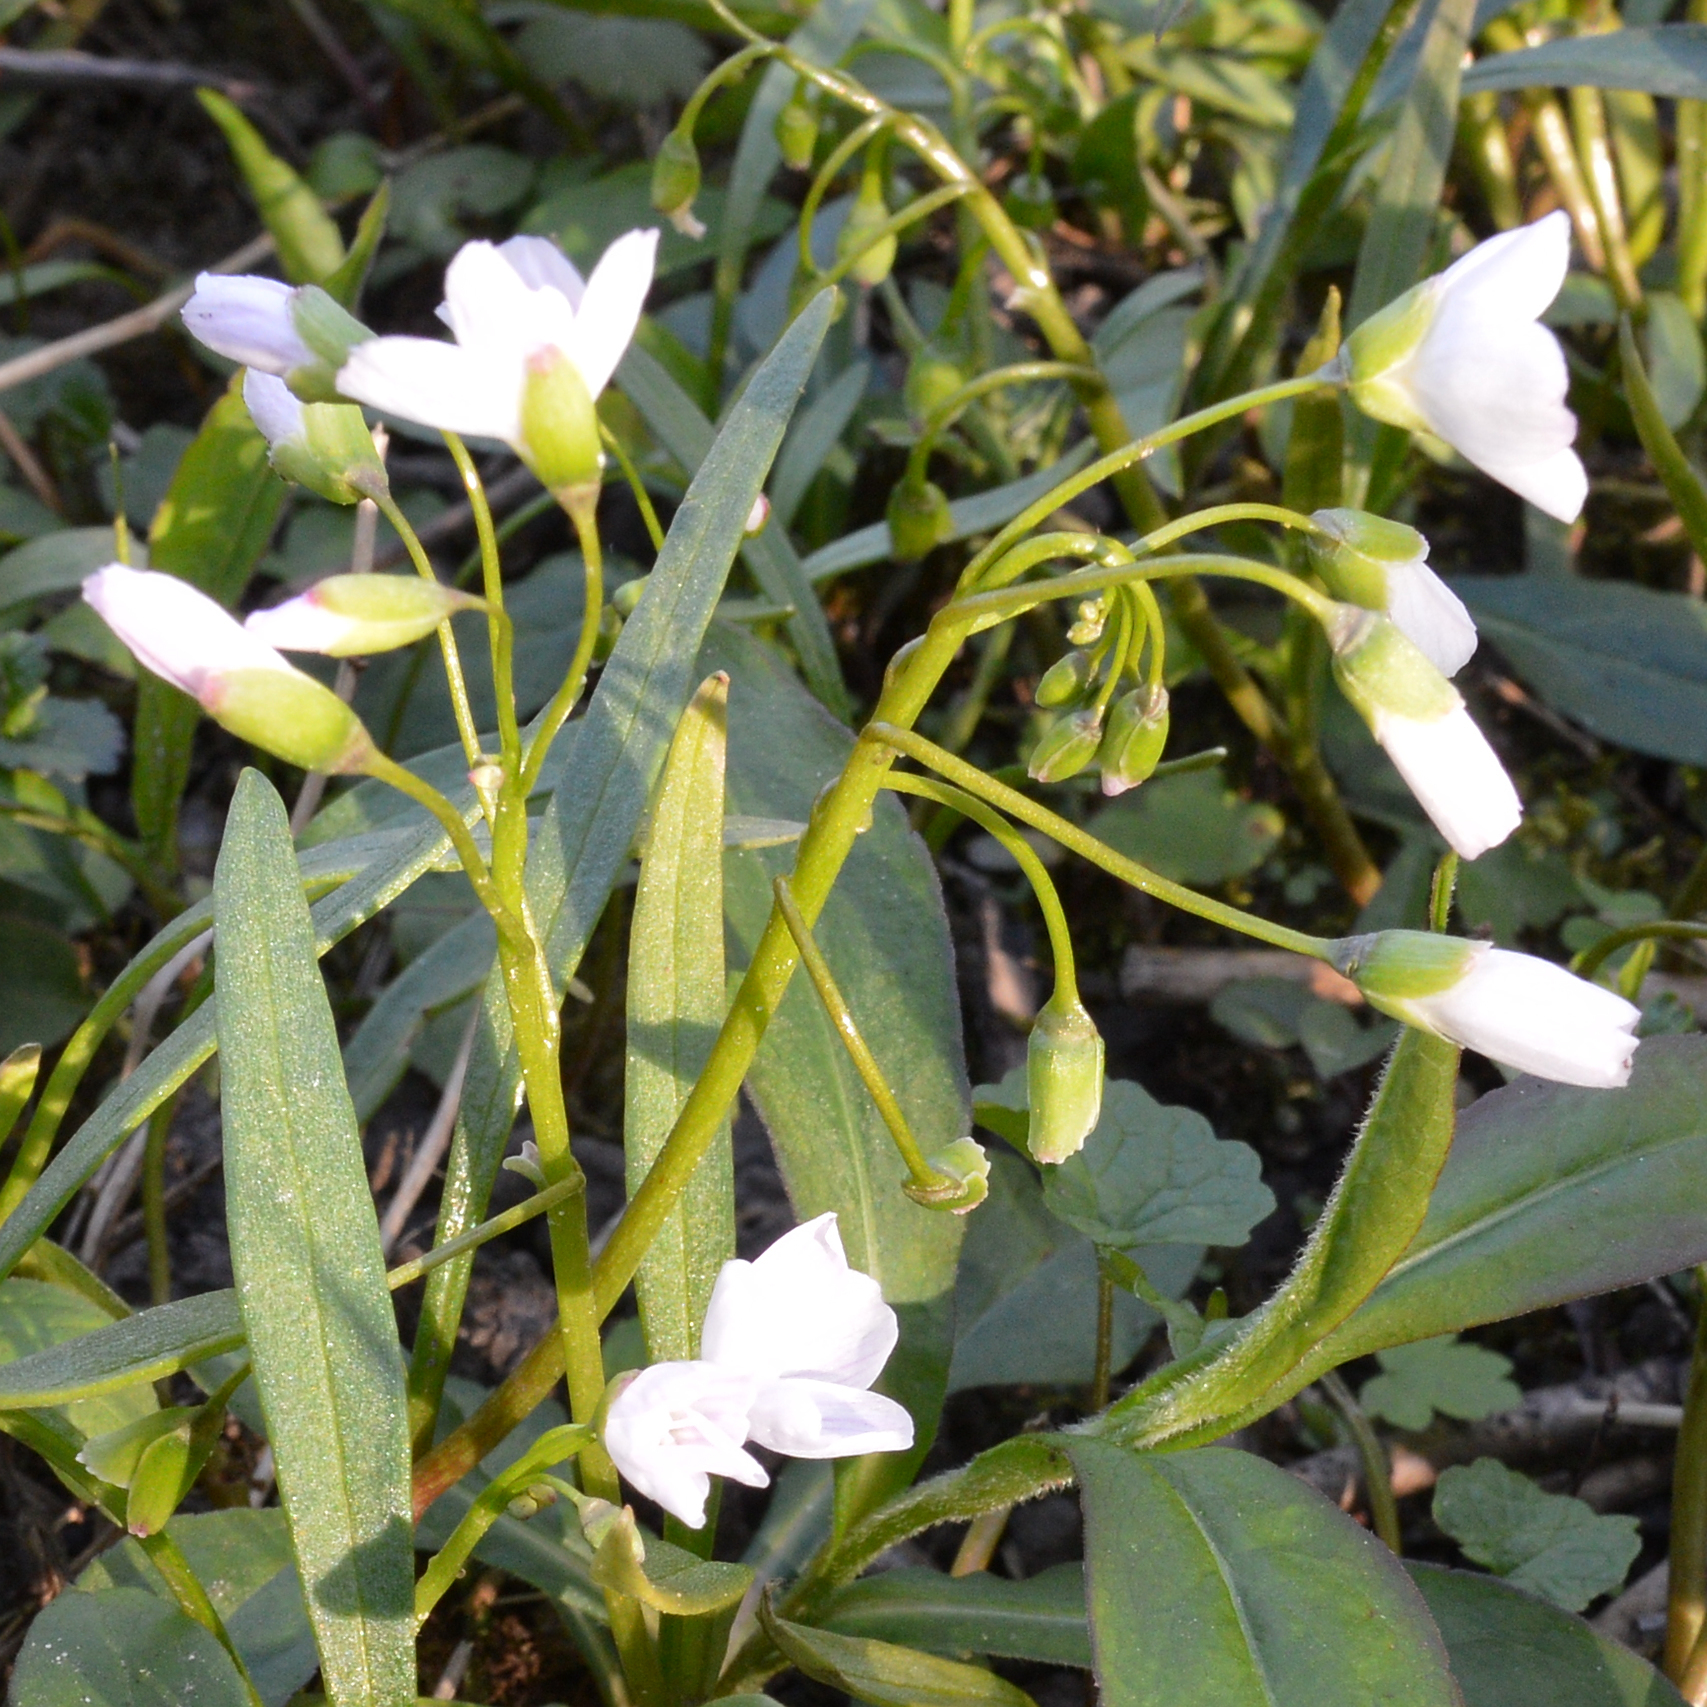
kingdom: Plantae
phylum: Tracheophyta
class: Magnoliopsida
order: Caryophyllales
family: Montiaceae
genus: Claytonia
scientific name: Claytonia virginica
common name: Virginia springbeauty
